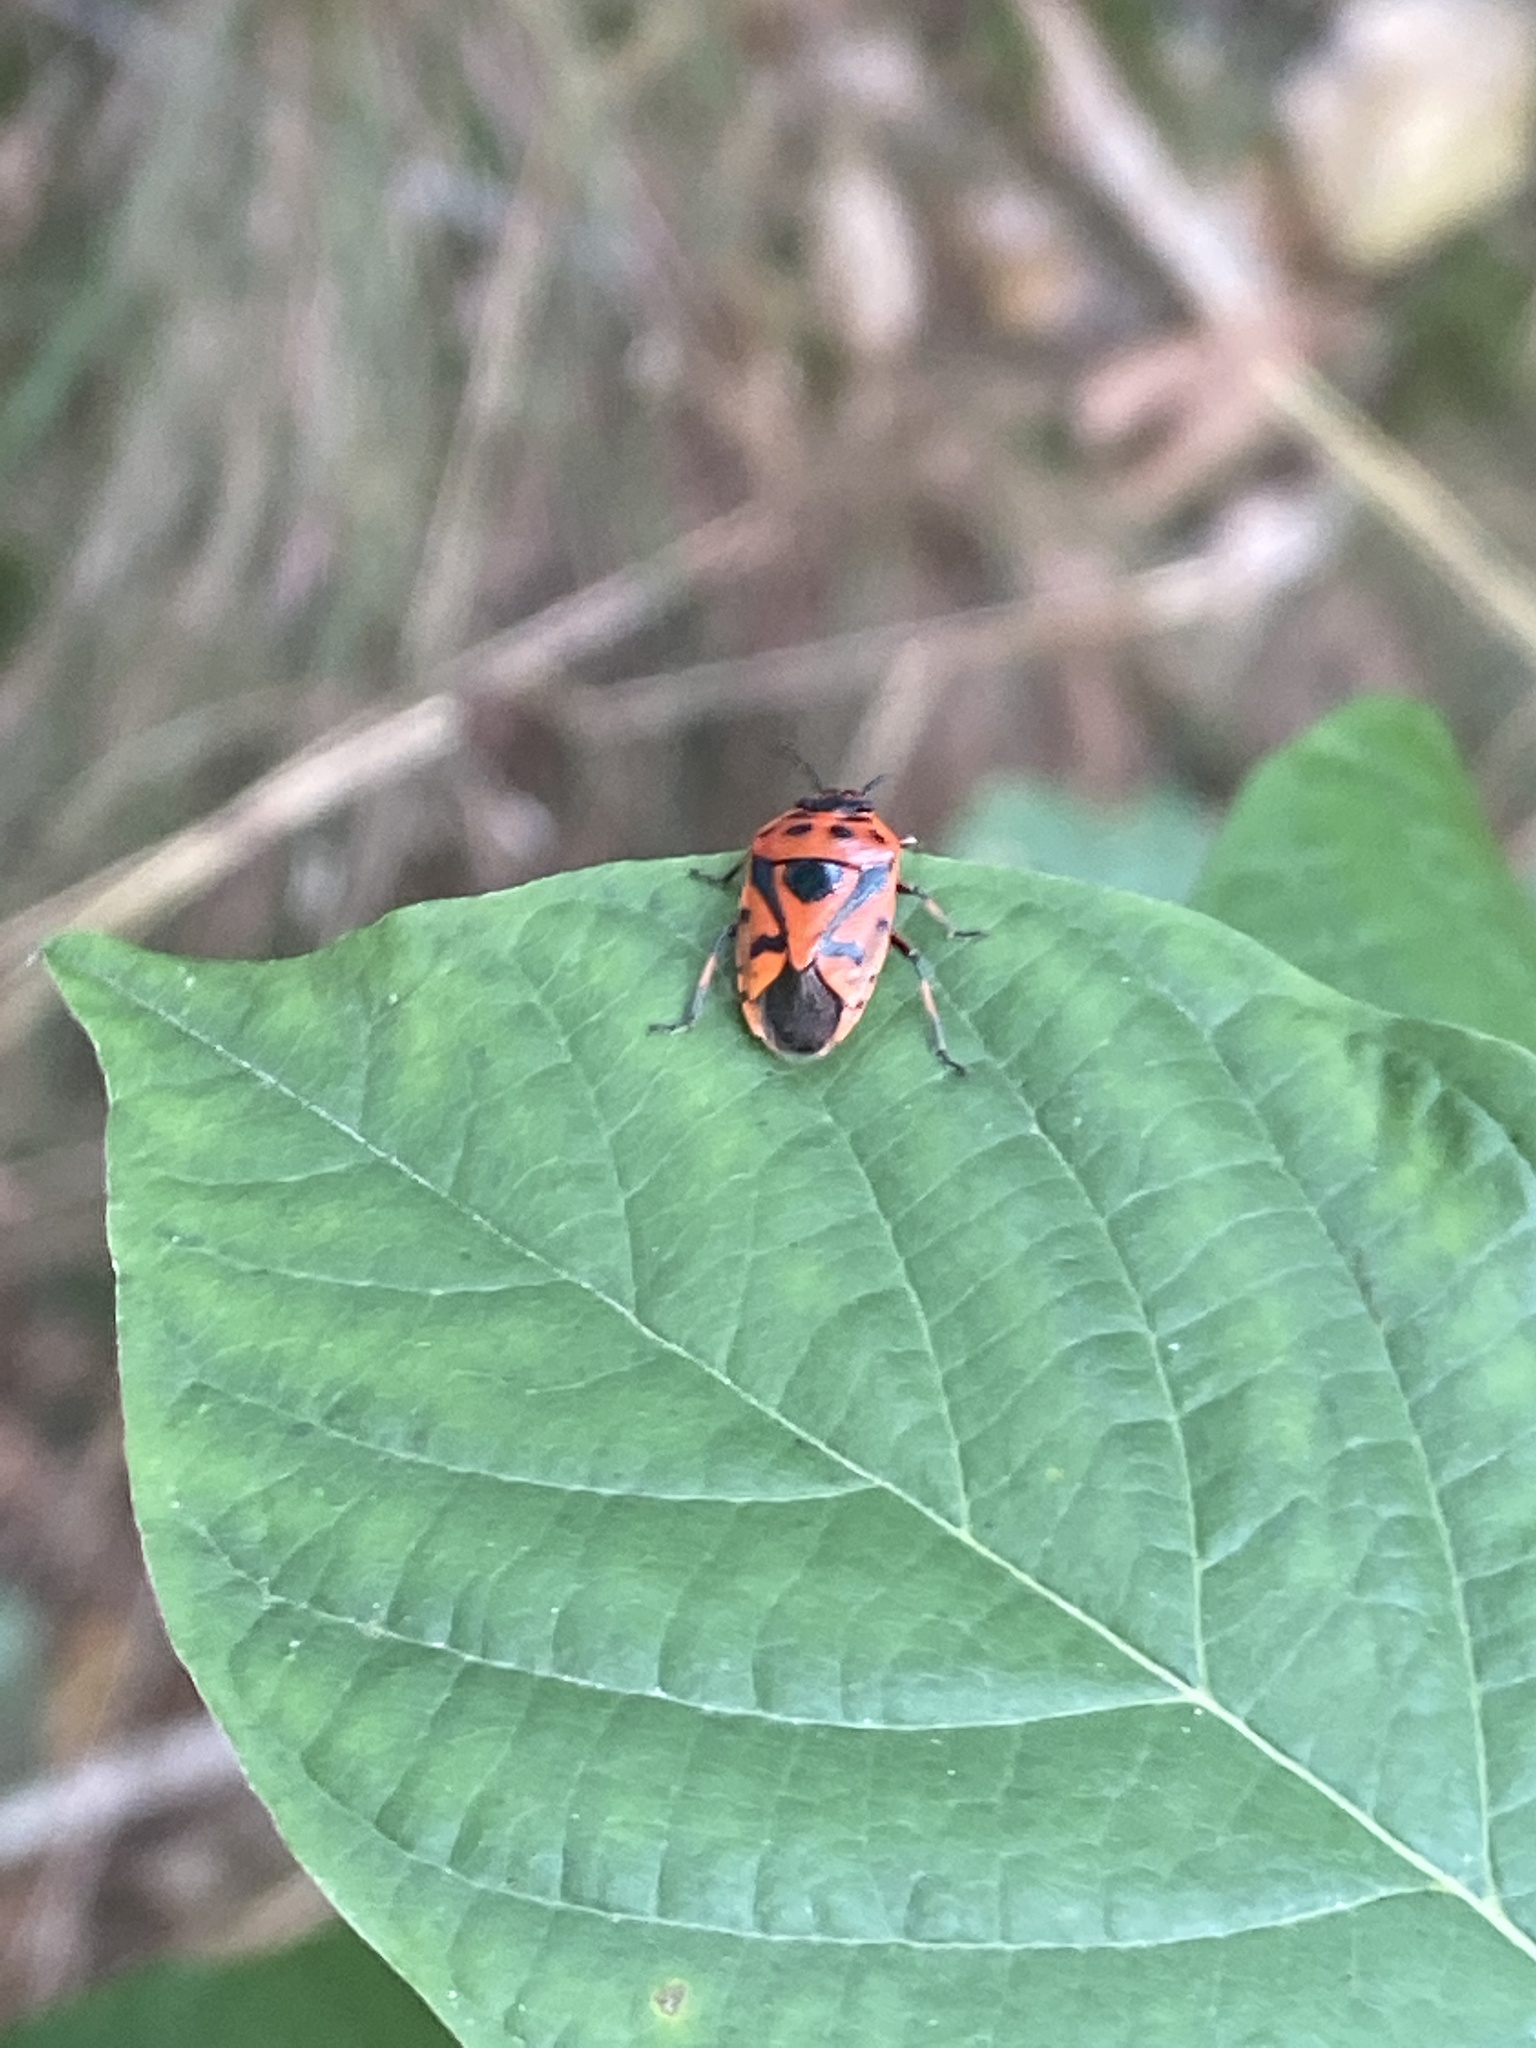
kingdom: Animalia
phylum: Arthropoda
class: Insecta
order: Hemiptera
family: Pentatomidae
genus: Eurydema
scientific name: Eurydema ornata
